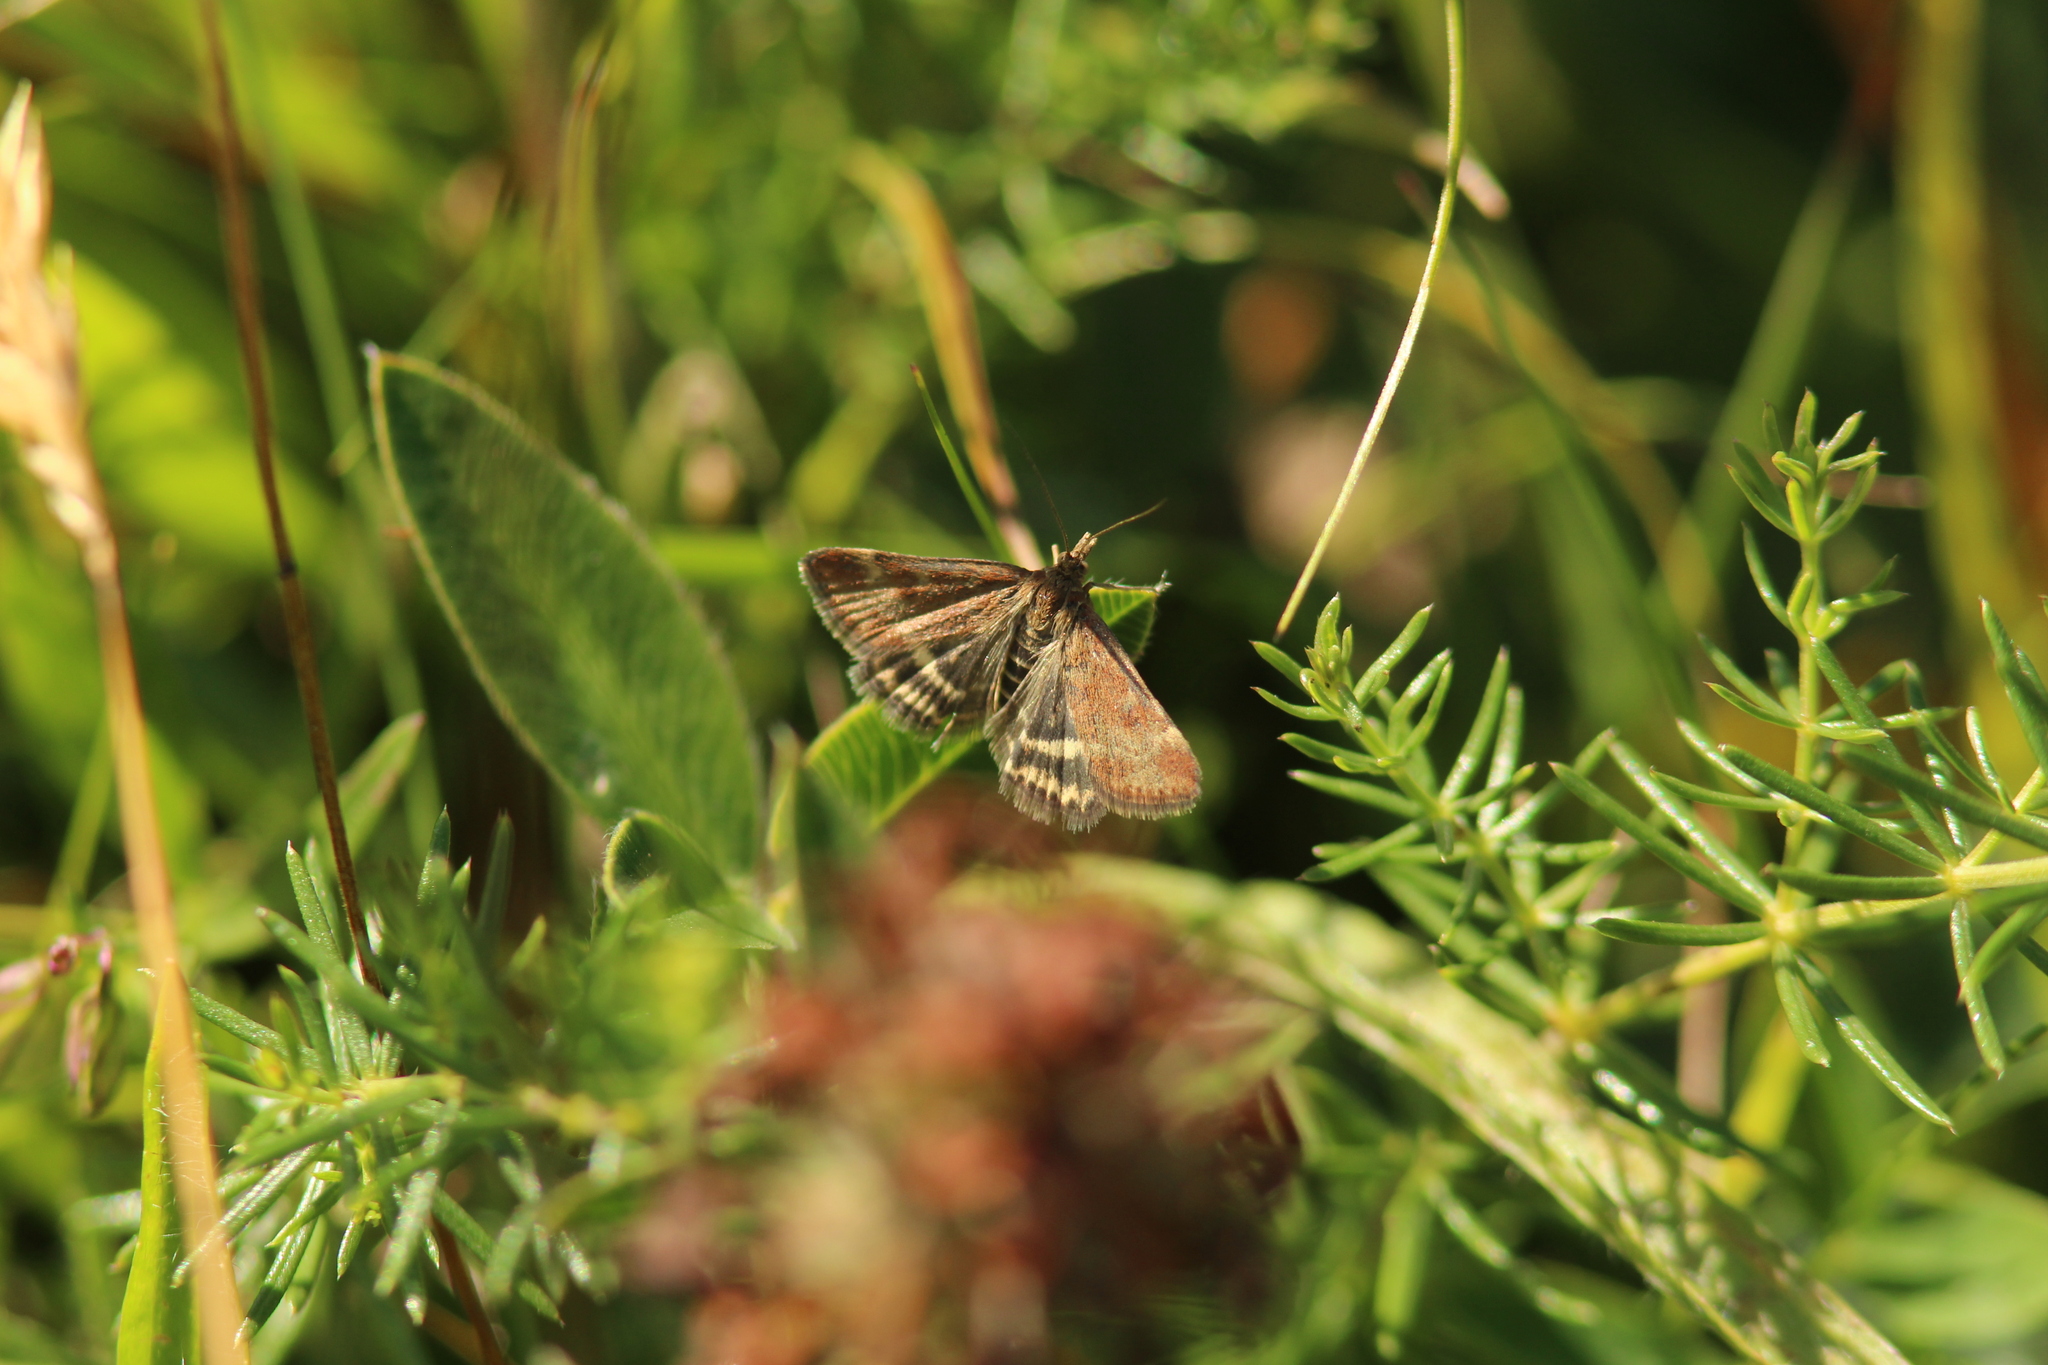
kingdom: Animalia
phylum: Arthropoda
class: Insecta
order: Lepidoptera
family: Crambidae
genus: Pyrausta
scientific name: Pyrausta despicata
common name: Straw-barred pearl
